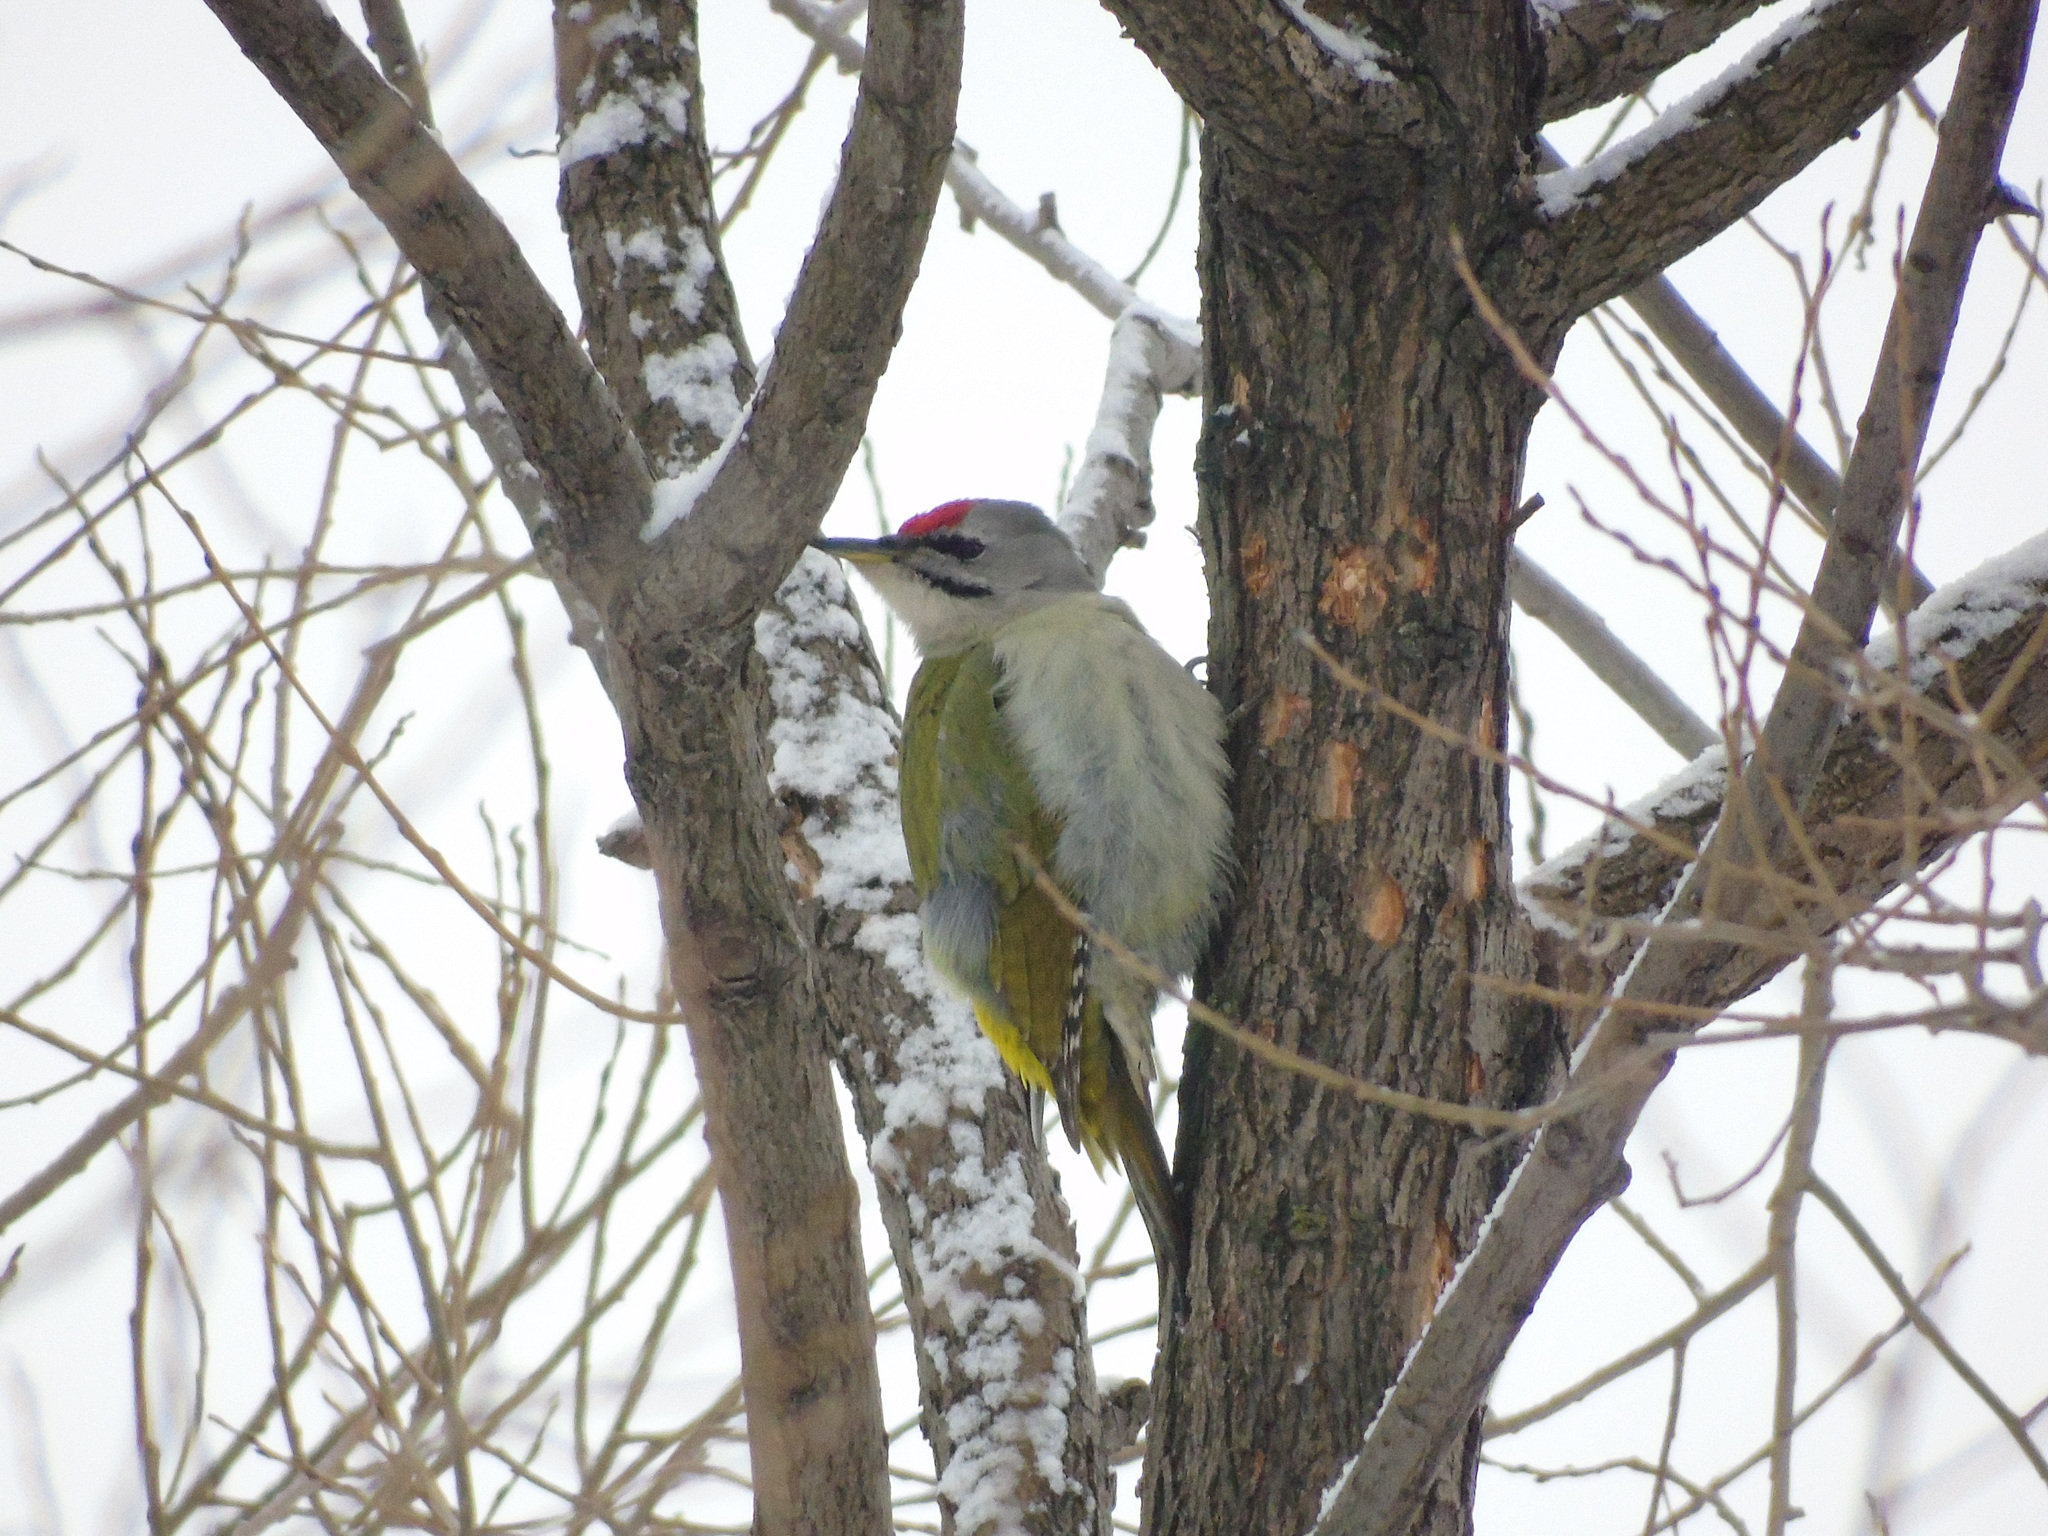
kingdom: Animalia
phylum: Chordata
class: Aves
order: Piciformes
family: Picidae
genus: Picus
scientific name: Picus canus
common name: Grey-headed woodpecker
